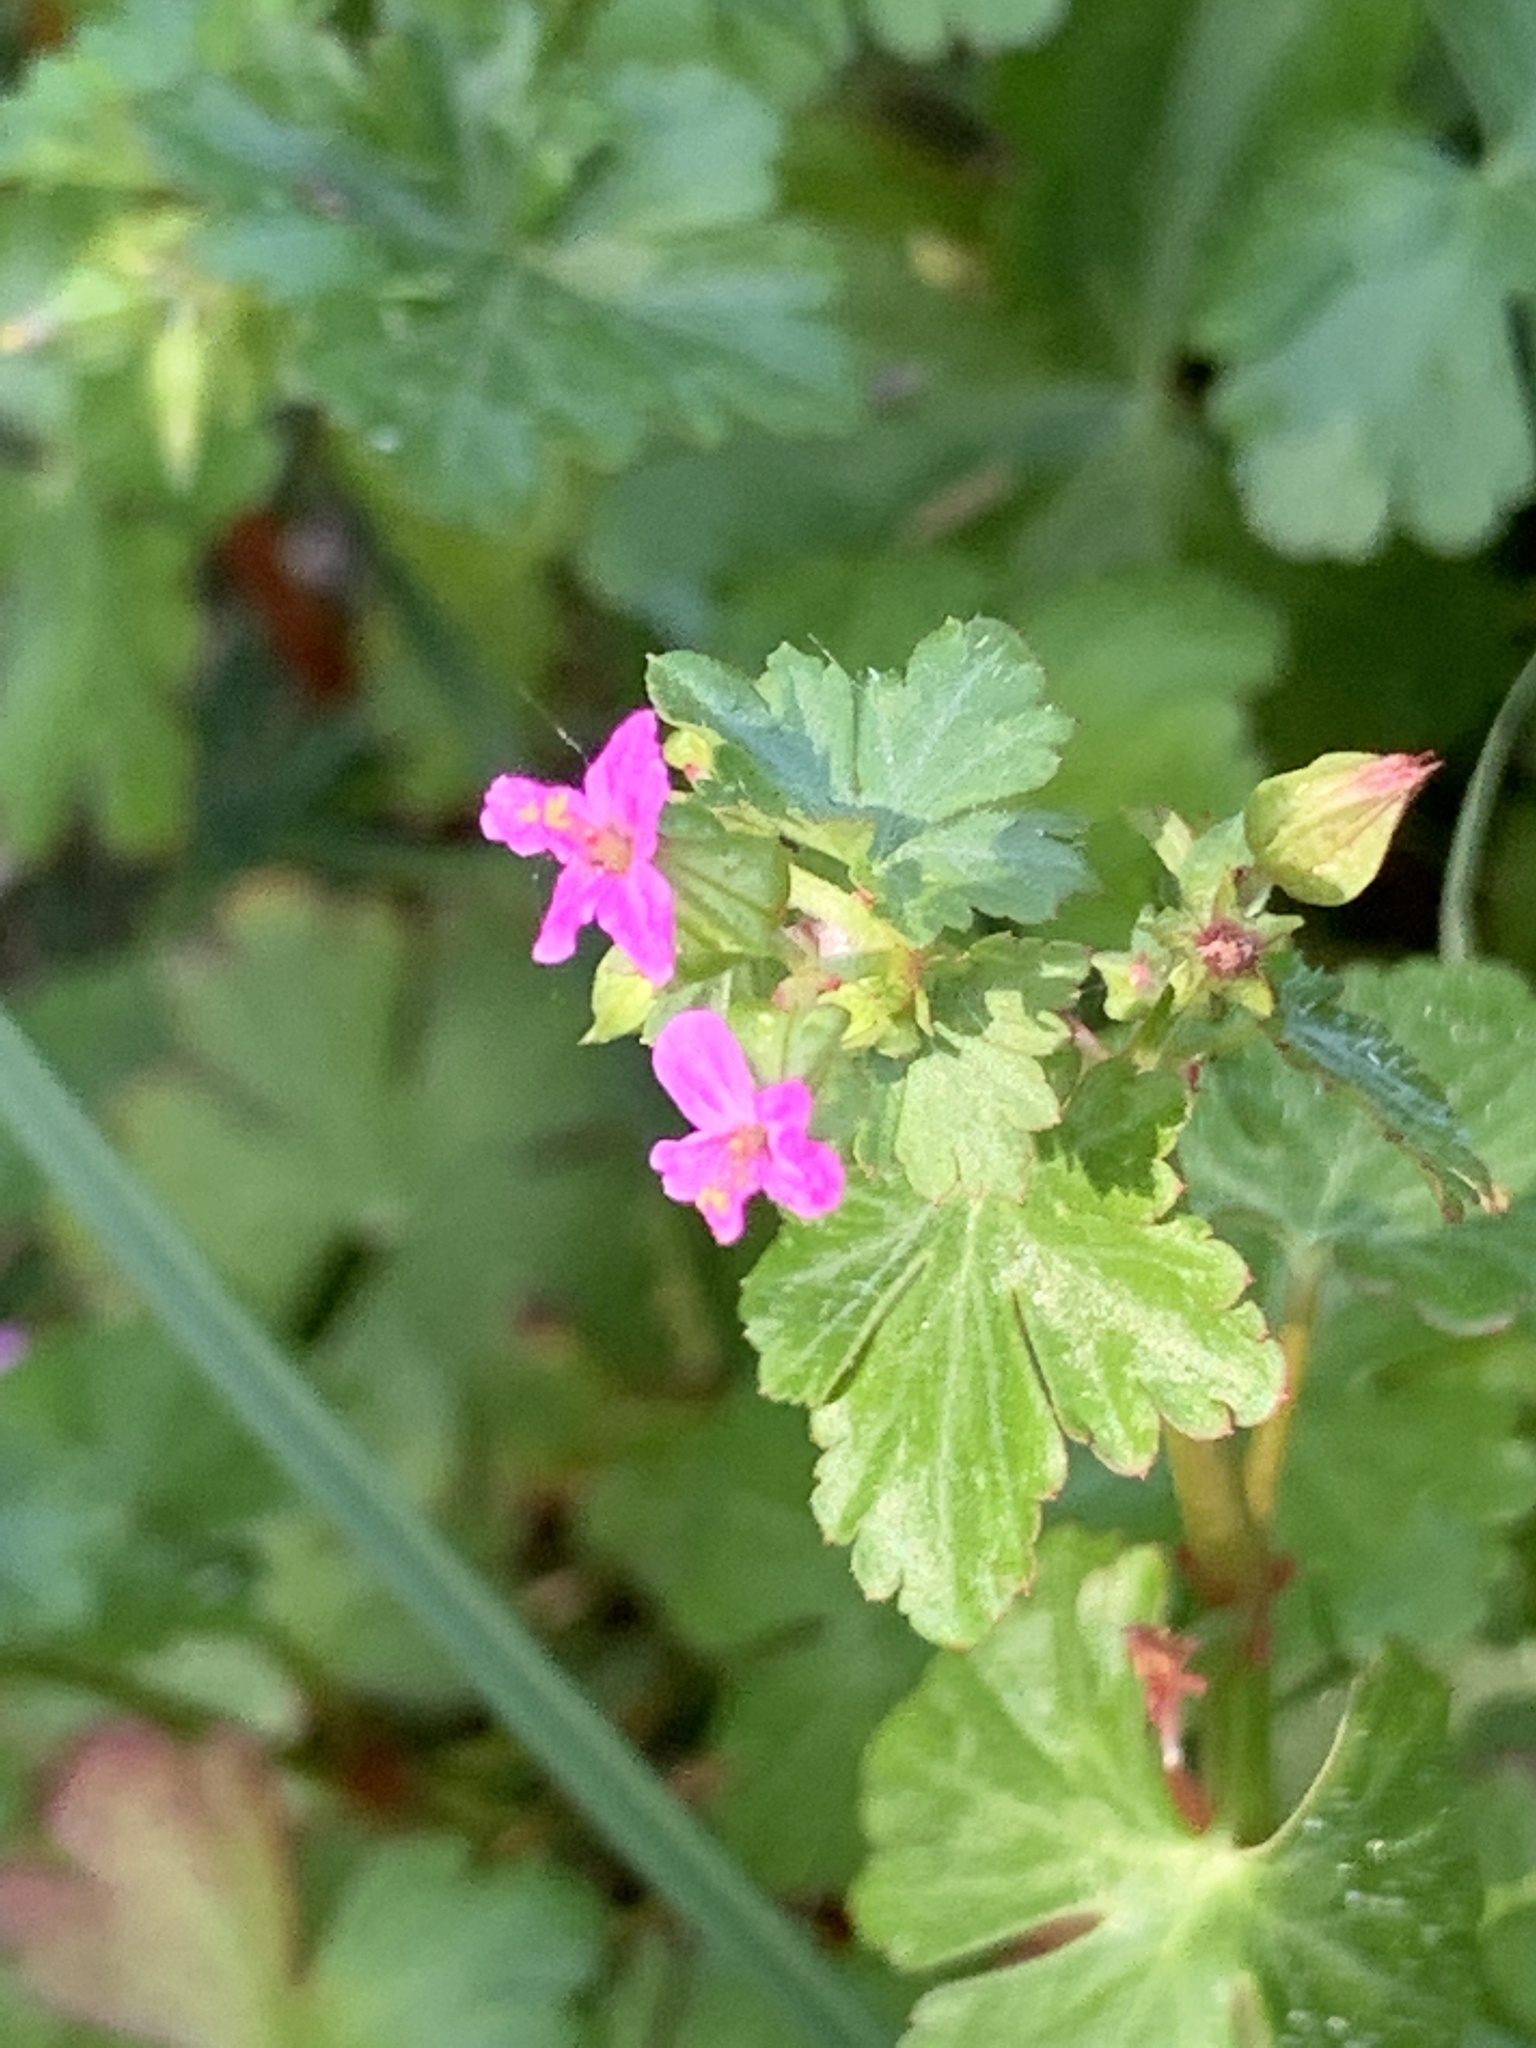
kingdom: Plantae
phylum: Tracheophyta
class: Magnoliopsida
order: Geraniales
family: Geraniaceae
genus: Geranium
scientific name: Geranium lucidum
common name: Shining crane's-bill
